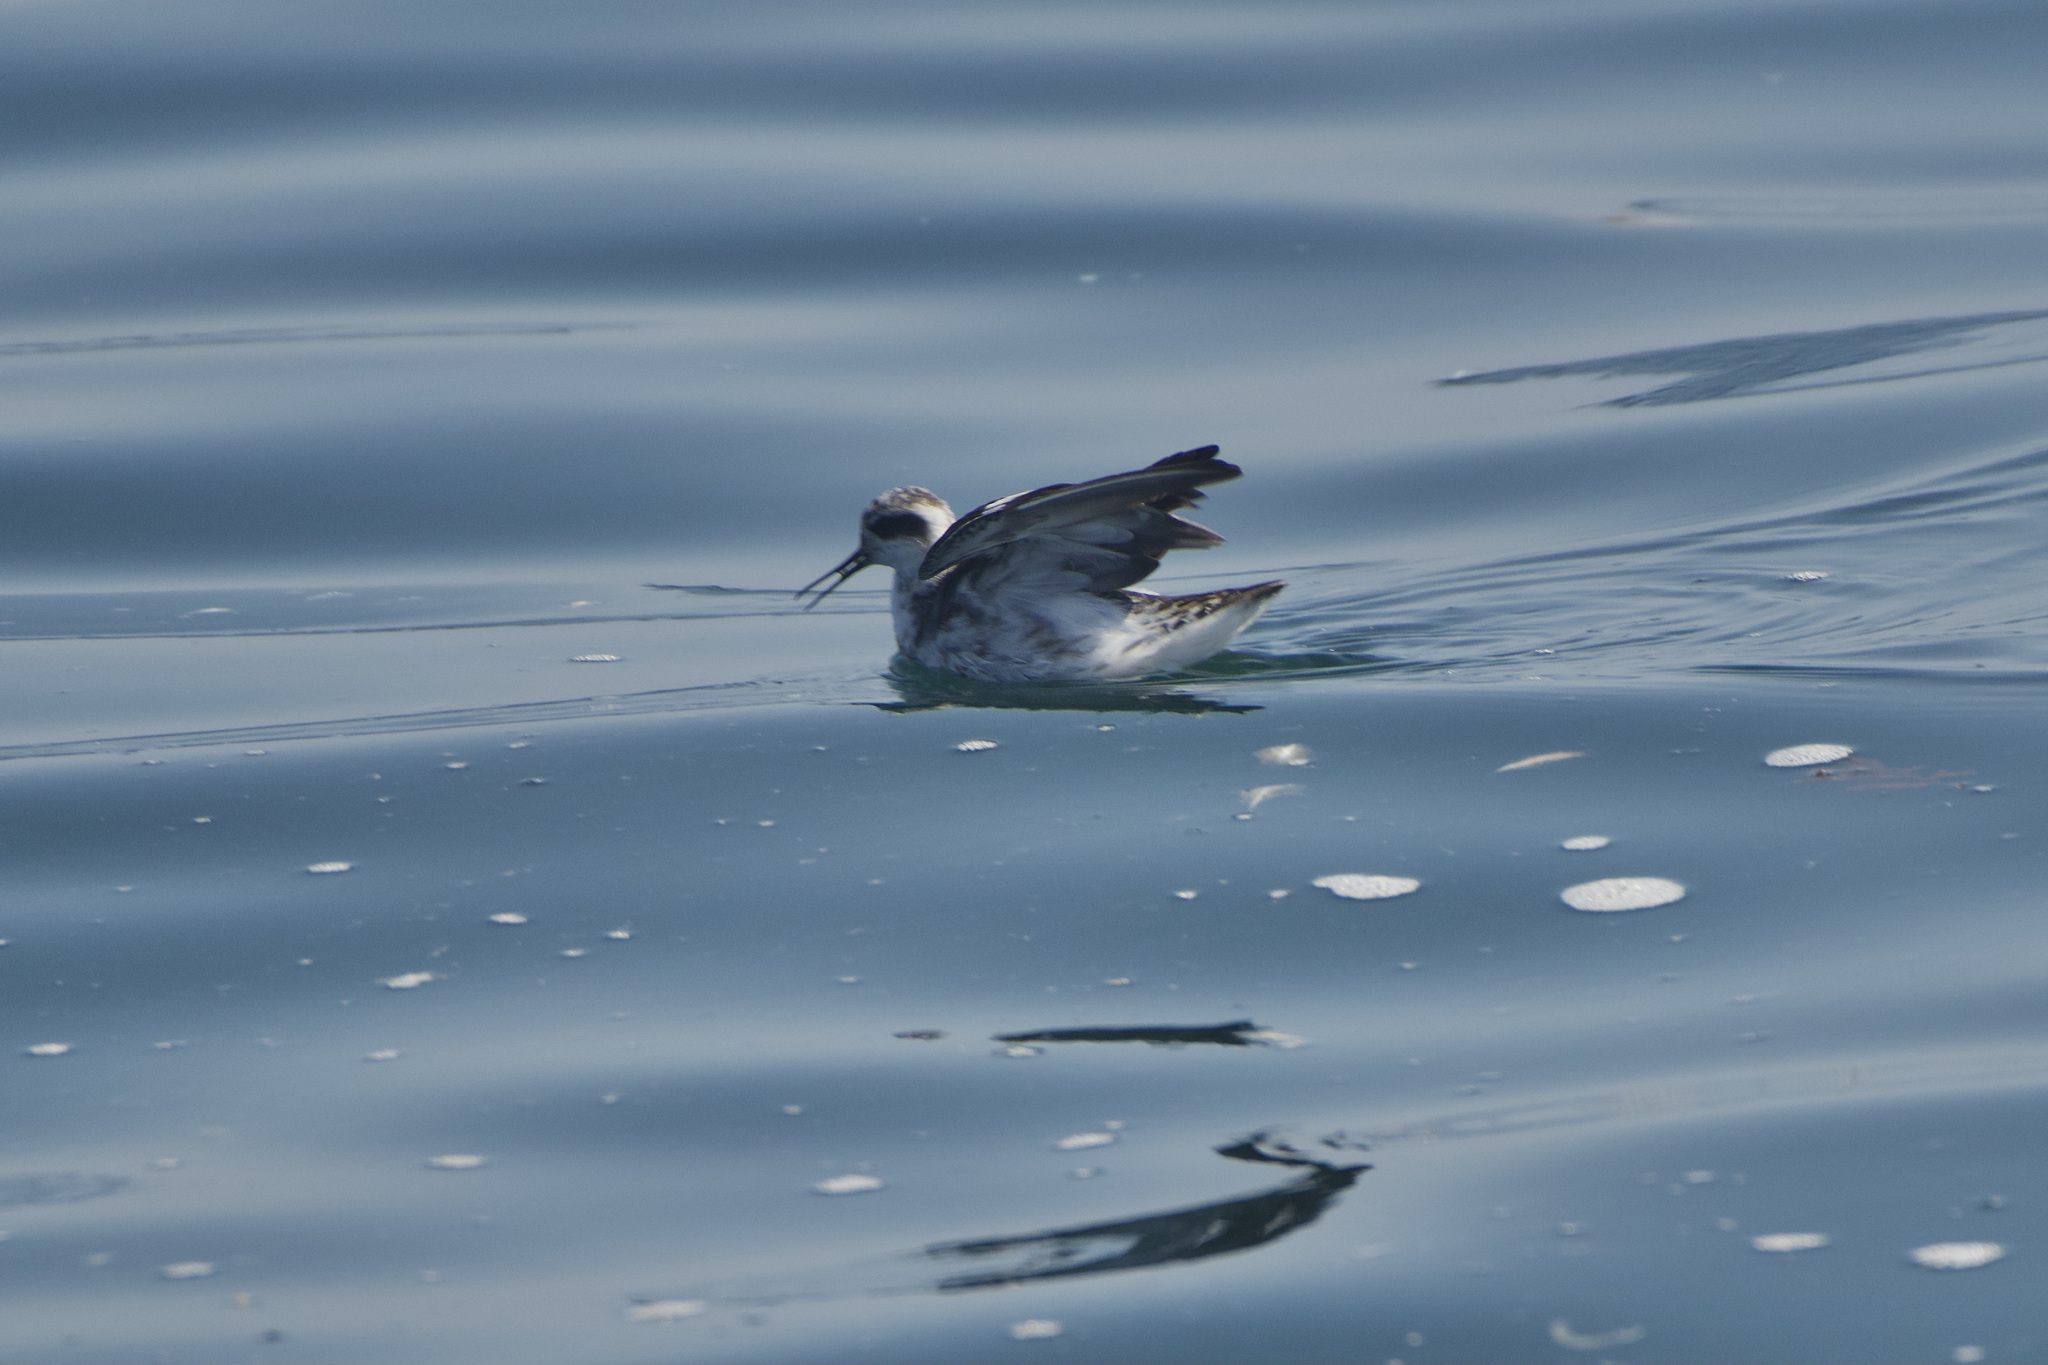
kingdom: Animalia
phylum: Chordata
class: Aves
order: Charadriiformes
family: Scolopacidae
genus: Phalaropus
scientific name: Phalaropus lobatus
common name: Red-necked phalarope
